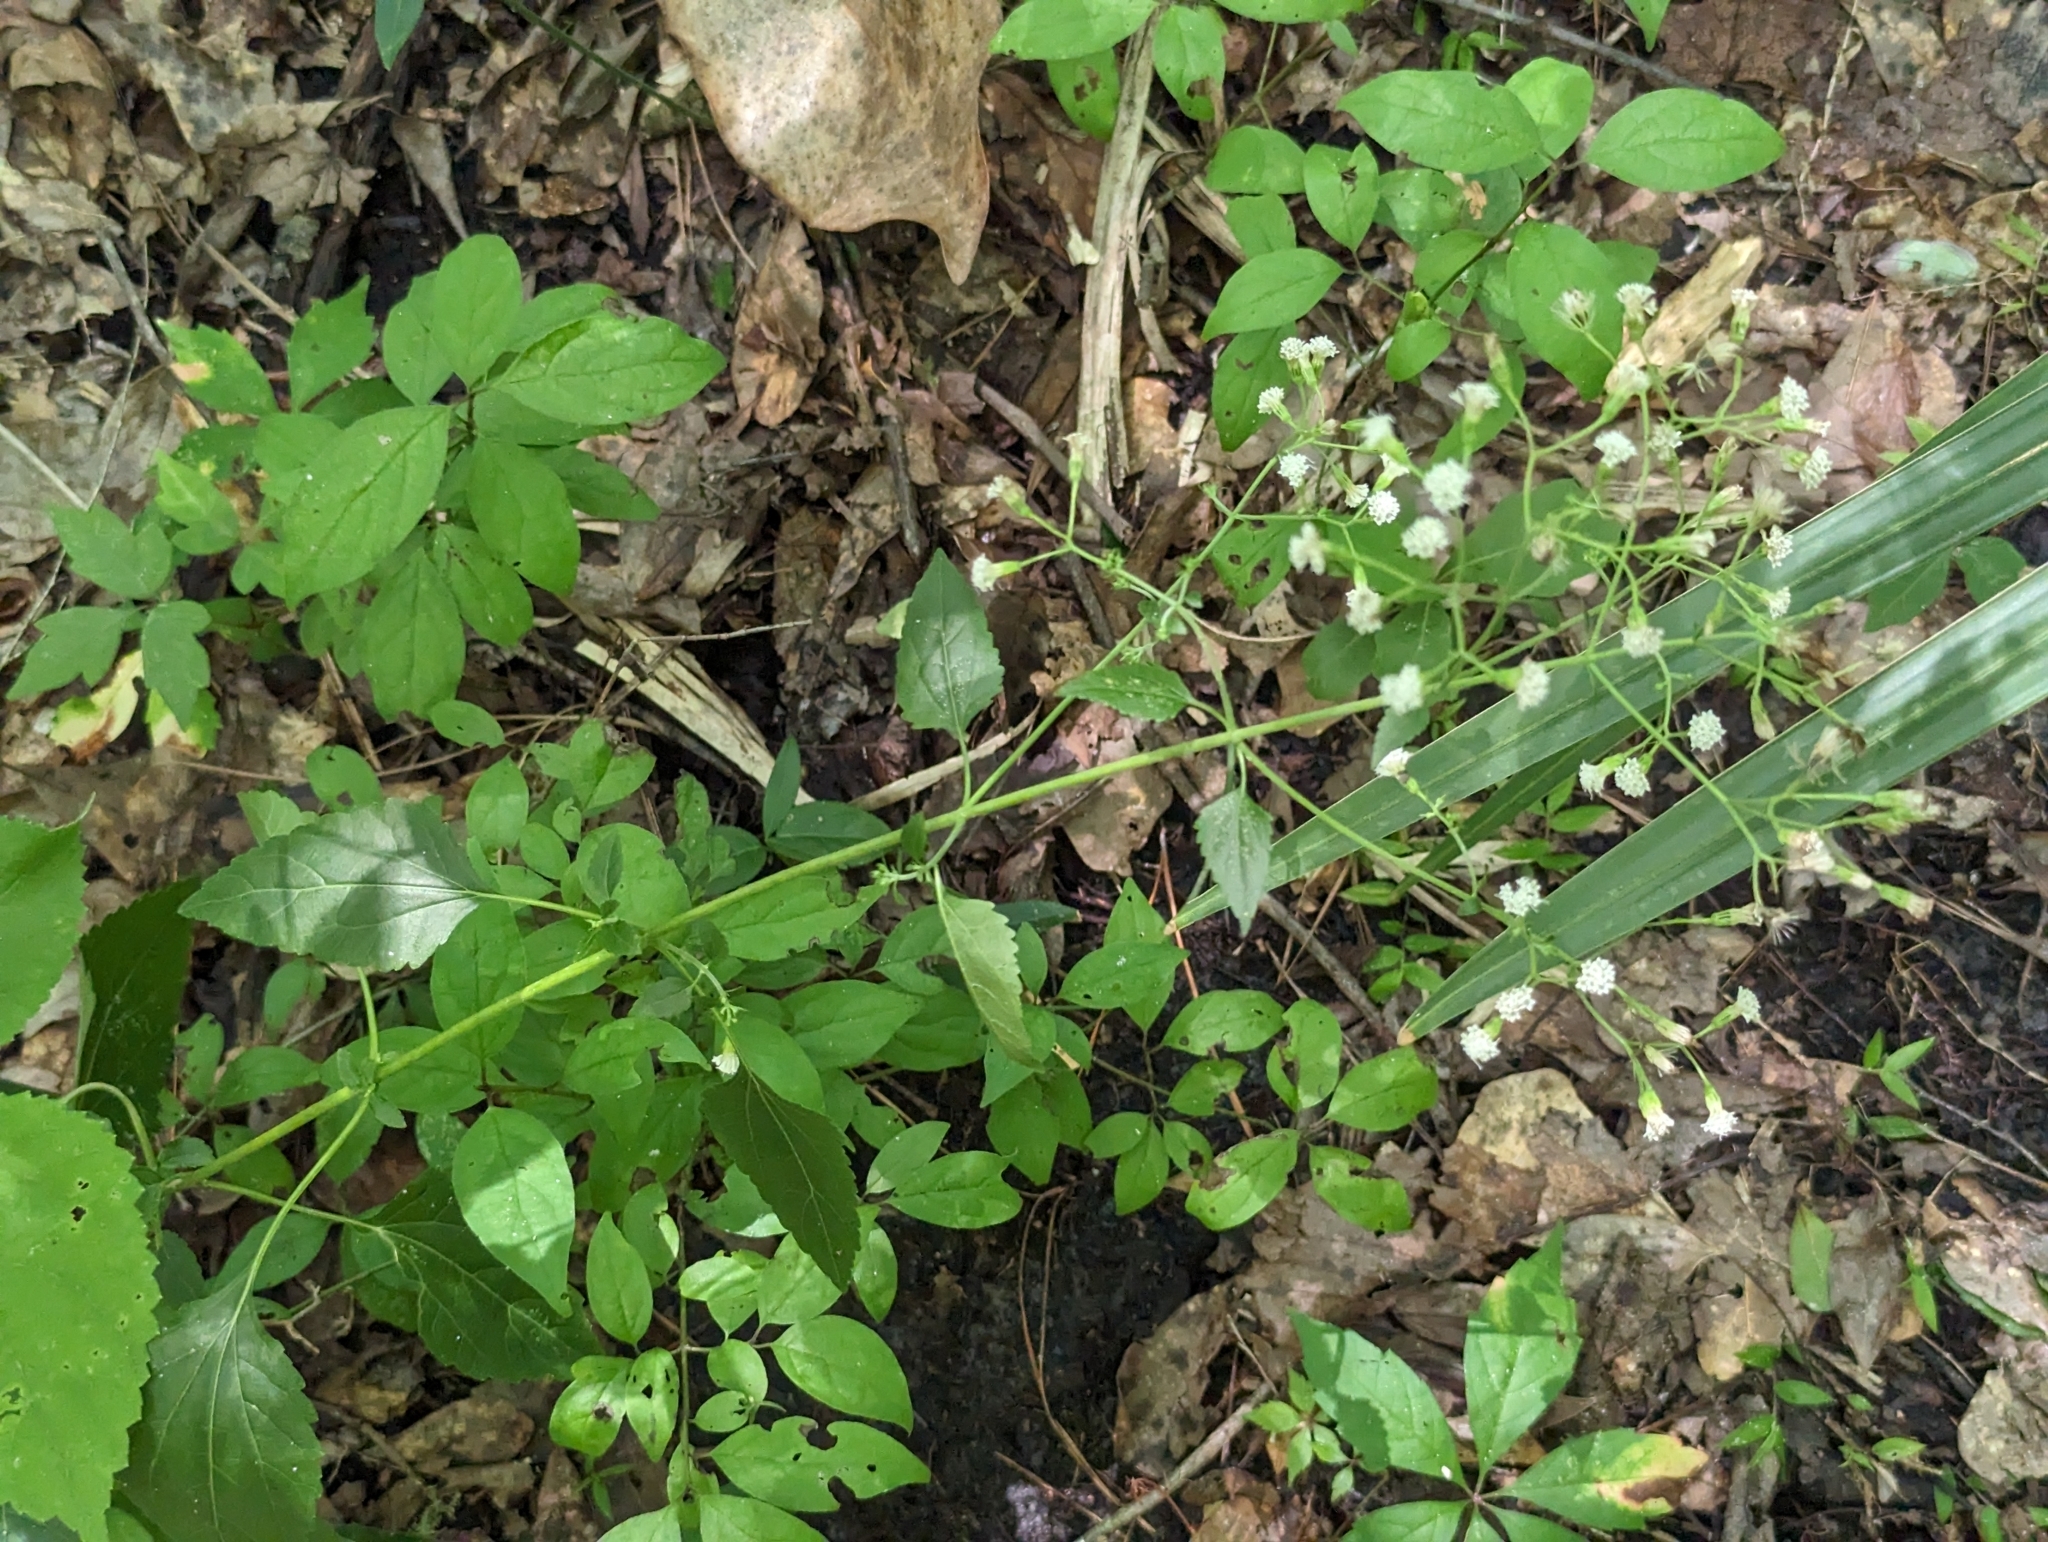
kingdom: Plantae
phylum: Tracheophyta
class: Magnoliopsida
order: Asterales
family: Asteraceae
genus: Ageratina
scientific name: Ageratina jucunda
